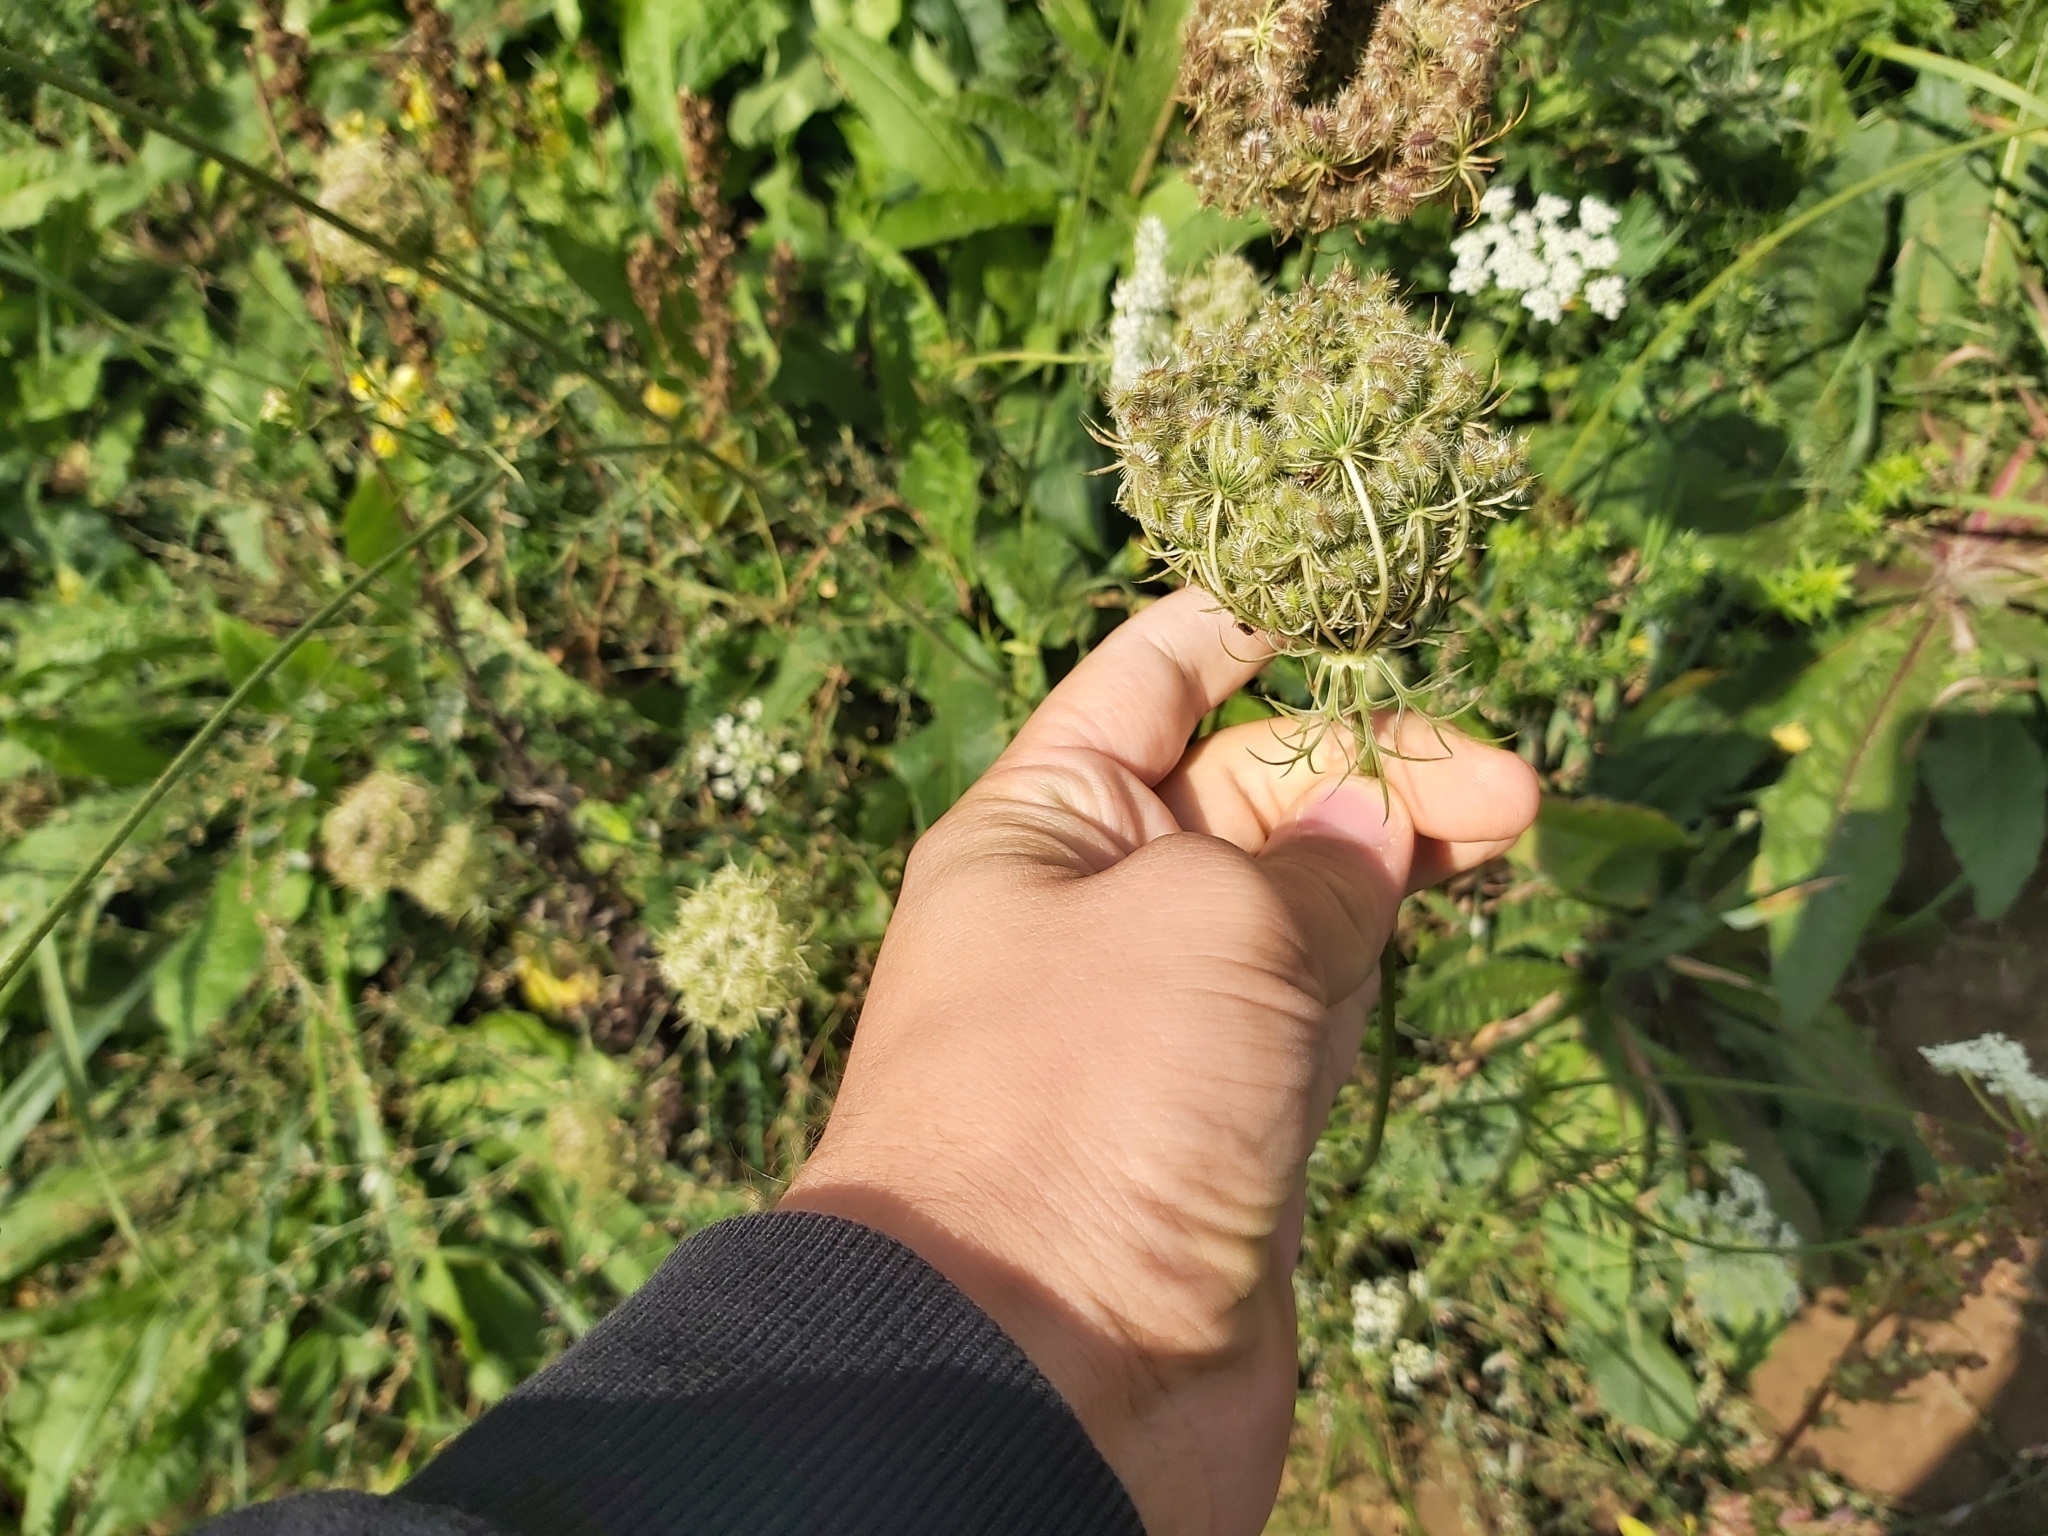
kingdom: Plantae
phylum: Tracheophyta
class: Magnoliopsida
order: Apiales
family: Apiaceae
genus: Daucus
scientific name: Daucus carota
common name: Wild carrot
